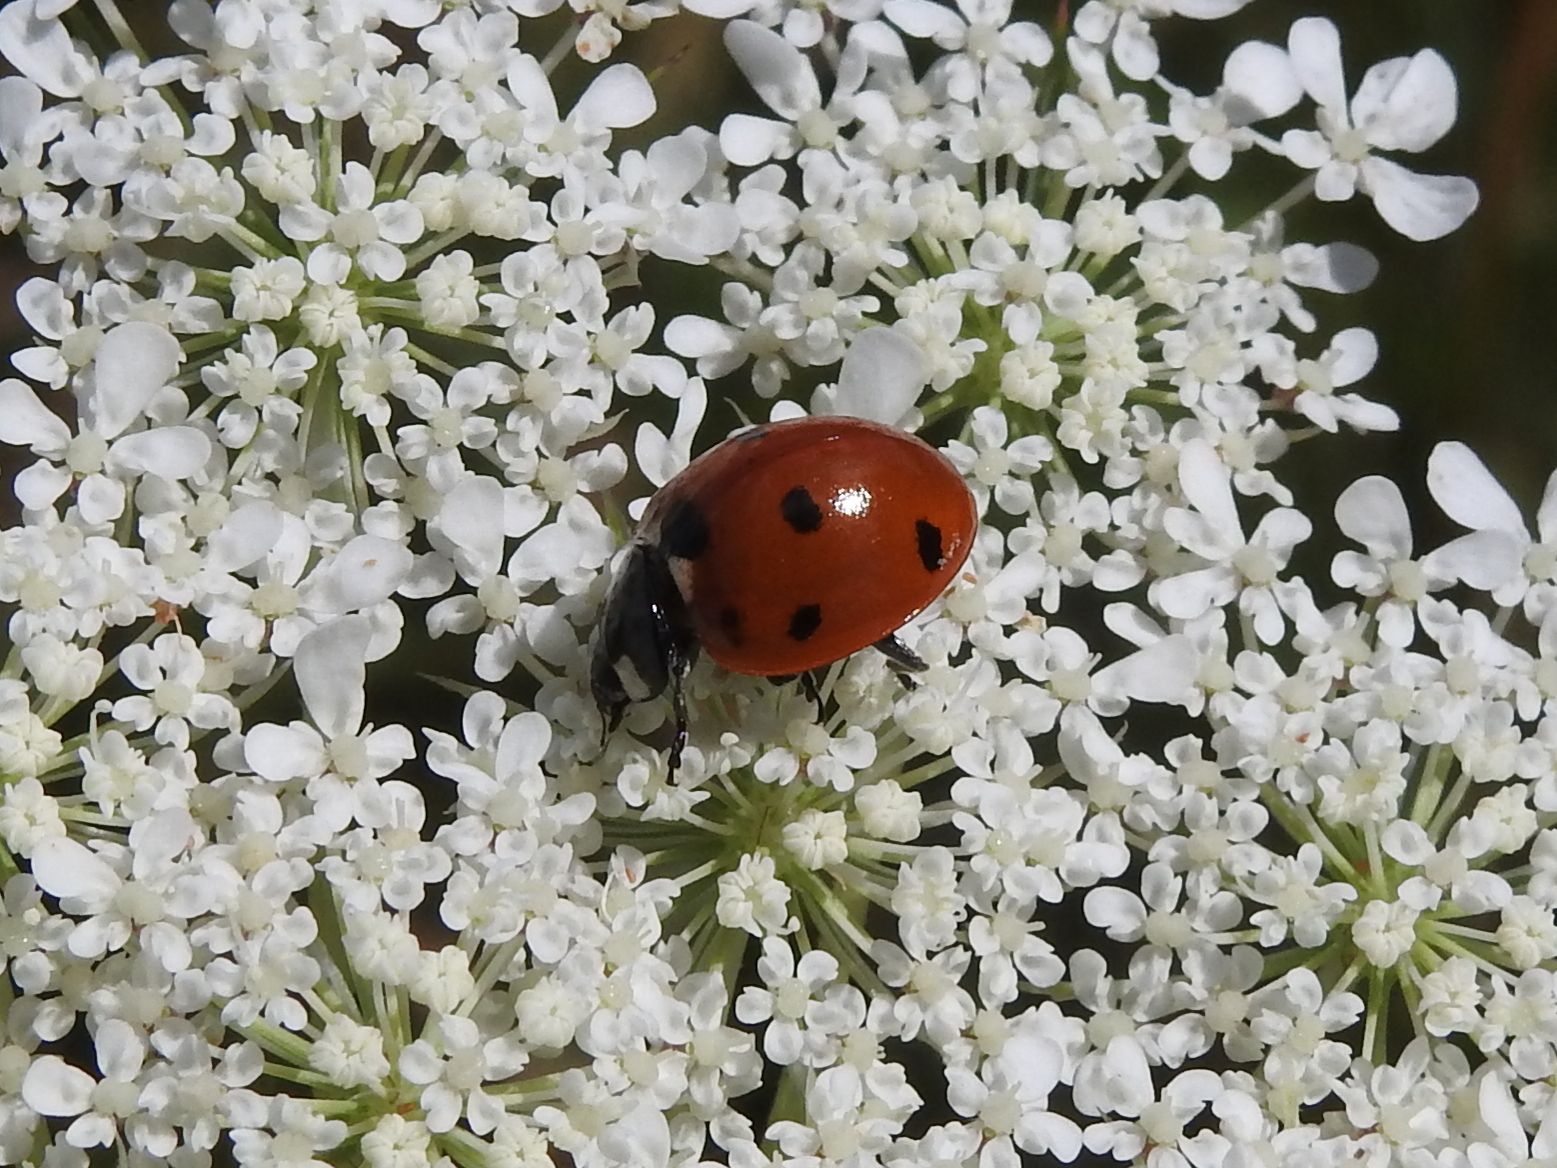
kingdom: Animalia
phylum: Arthropoda
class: Insecta
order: Coleoptera
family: Coccinellidae
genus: Coccinella
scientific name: Coccinella septempunctata
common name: Sevenspotted lady beetle
